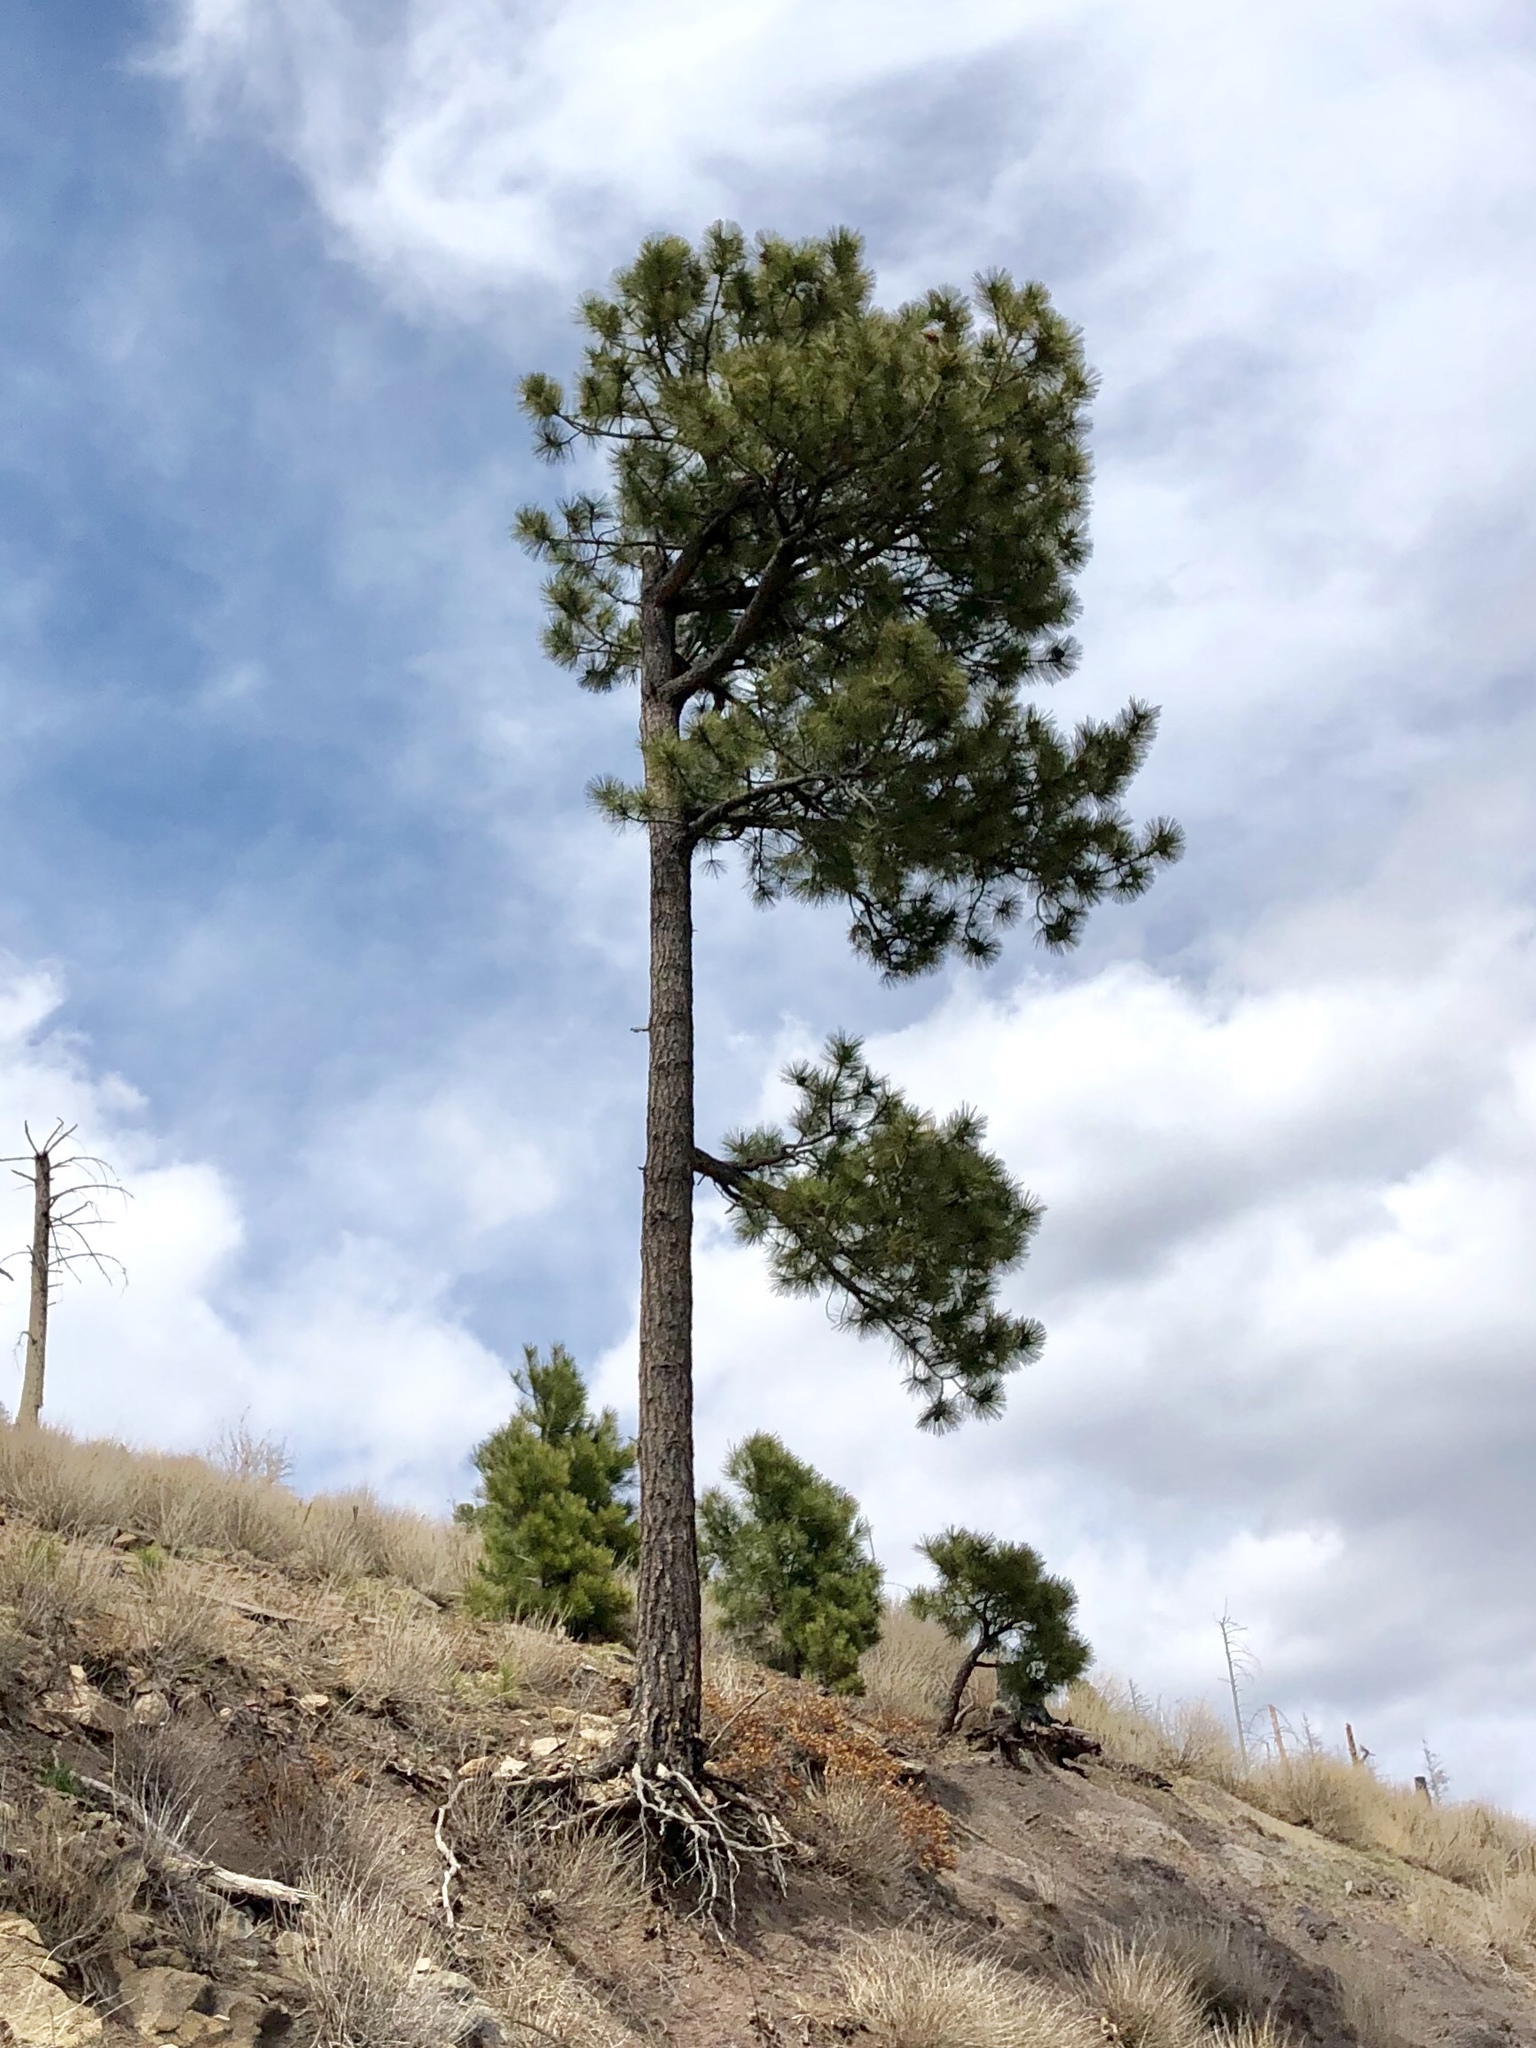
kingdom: Plantae
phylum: Tracheophyta
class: Pinopsida
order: Pinales
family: Pinaceae
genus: Pinus
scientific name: Pinus ponderosa
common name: Western yellow-pine
